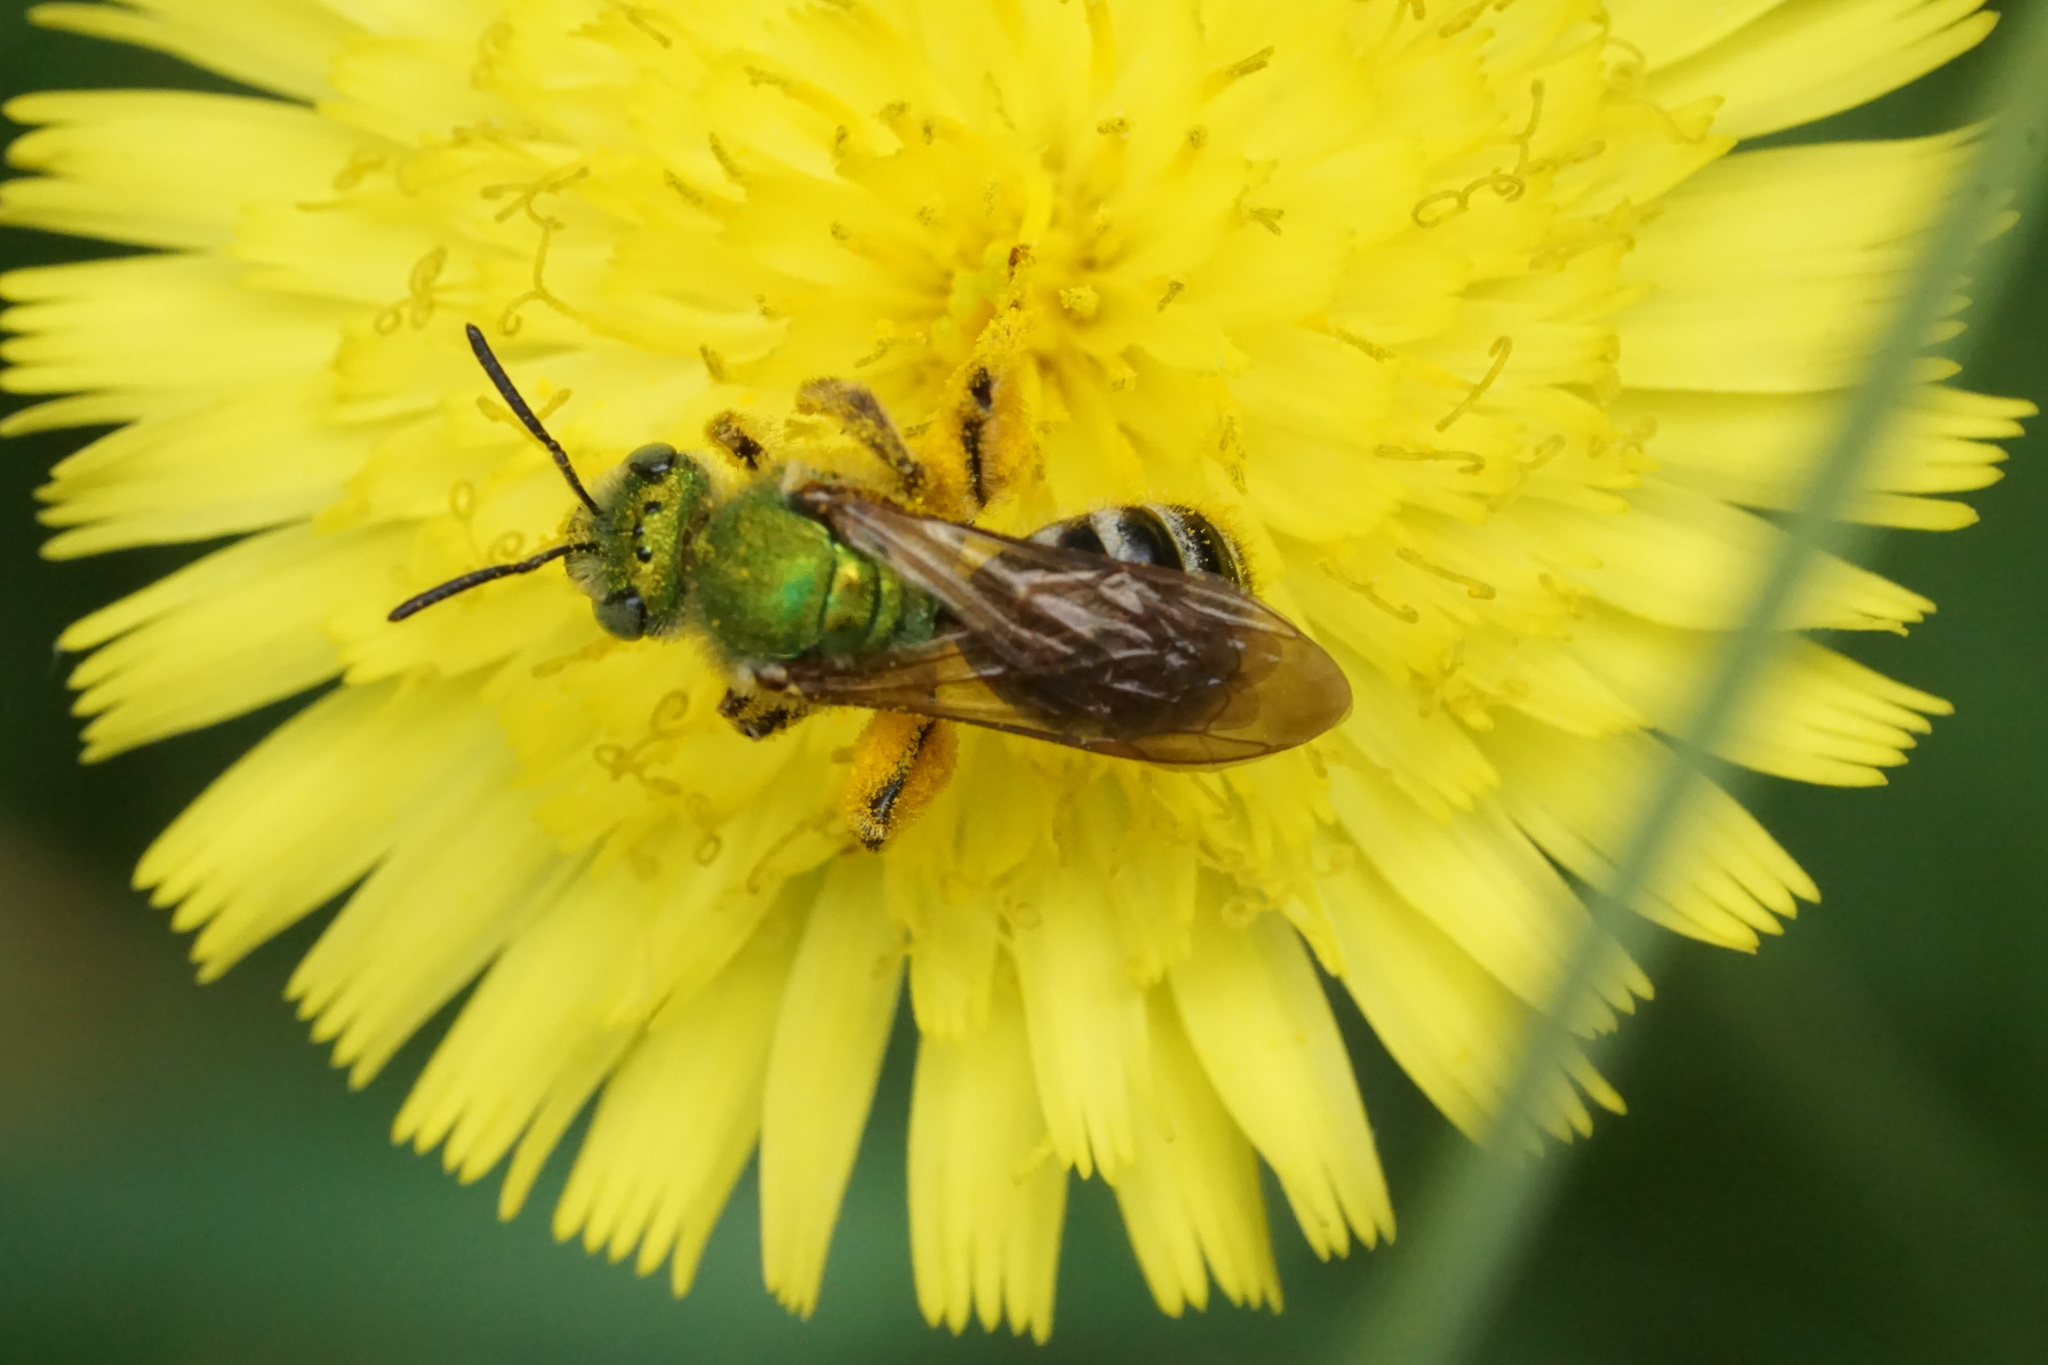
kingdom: Animalia
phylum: Arthropoda
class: Insecta
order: Hymenoptera
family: Halictidae
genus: Agapostemon
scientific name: Agapostemon virescens
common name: Bicolored striped sweat bee
